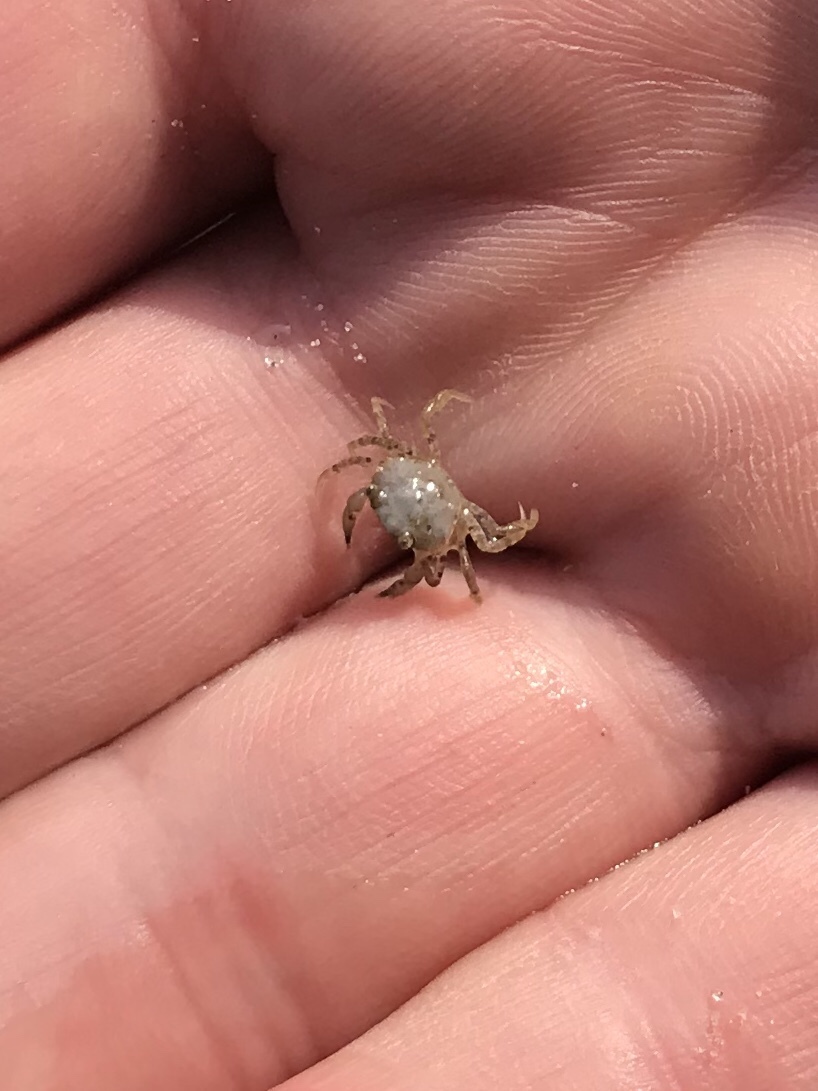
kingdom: Animalia
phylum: Arthropoda
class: Malacostraca
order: Decapoda
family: Carcinidae
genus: Carcinus
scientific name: Carcinus maenas
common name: European green crab
